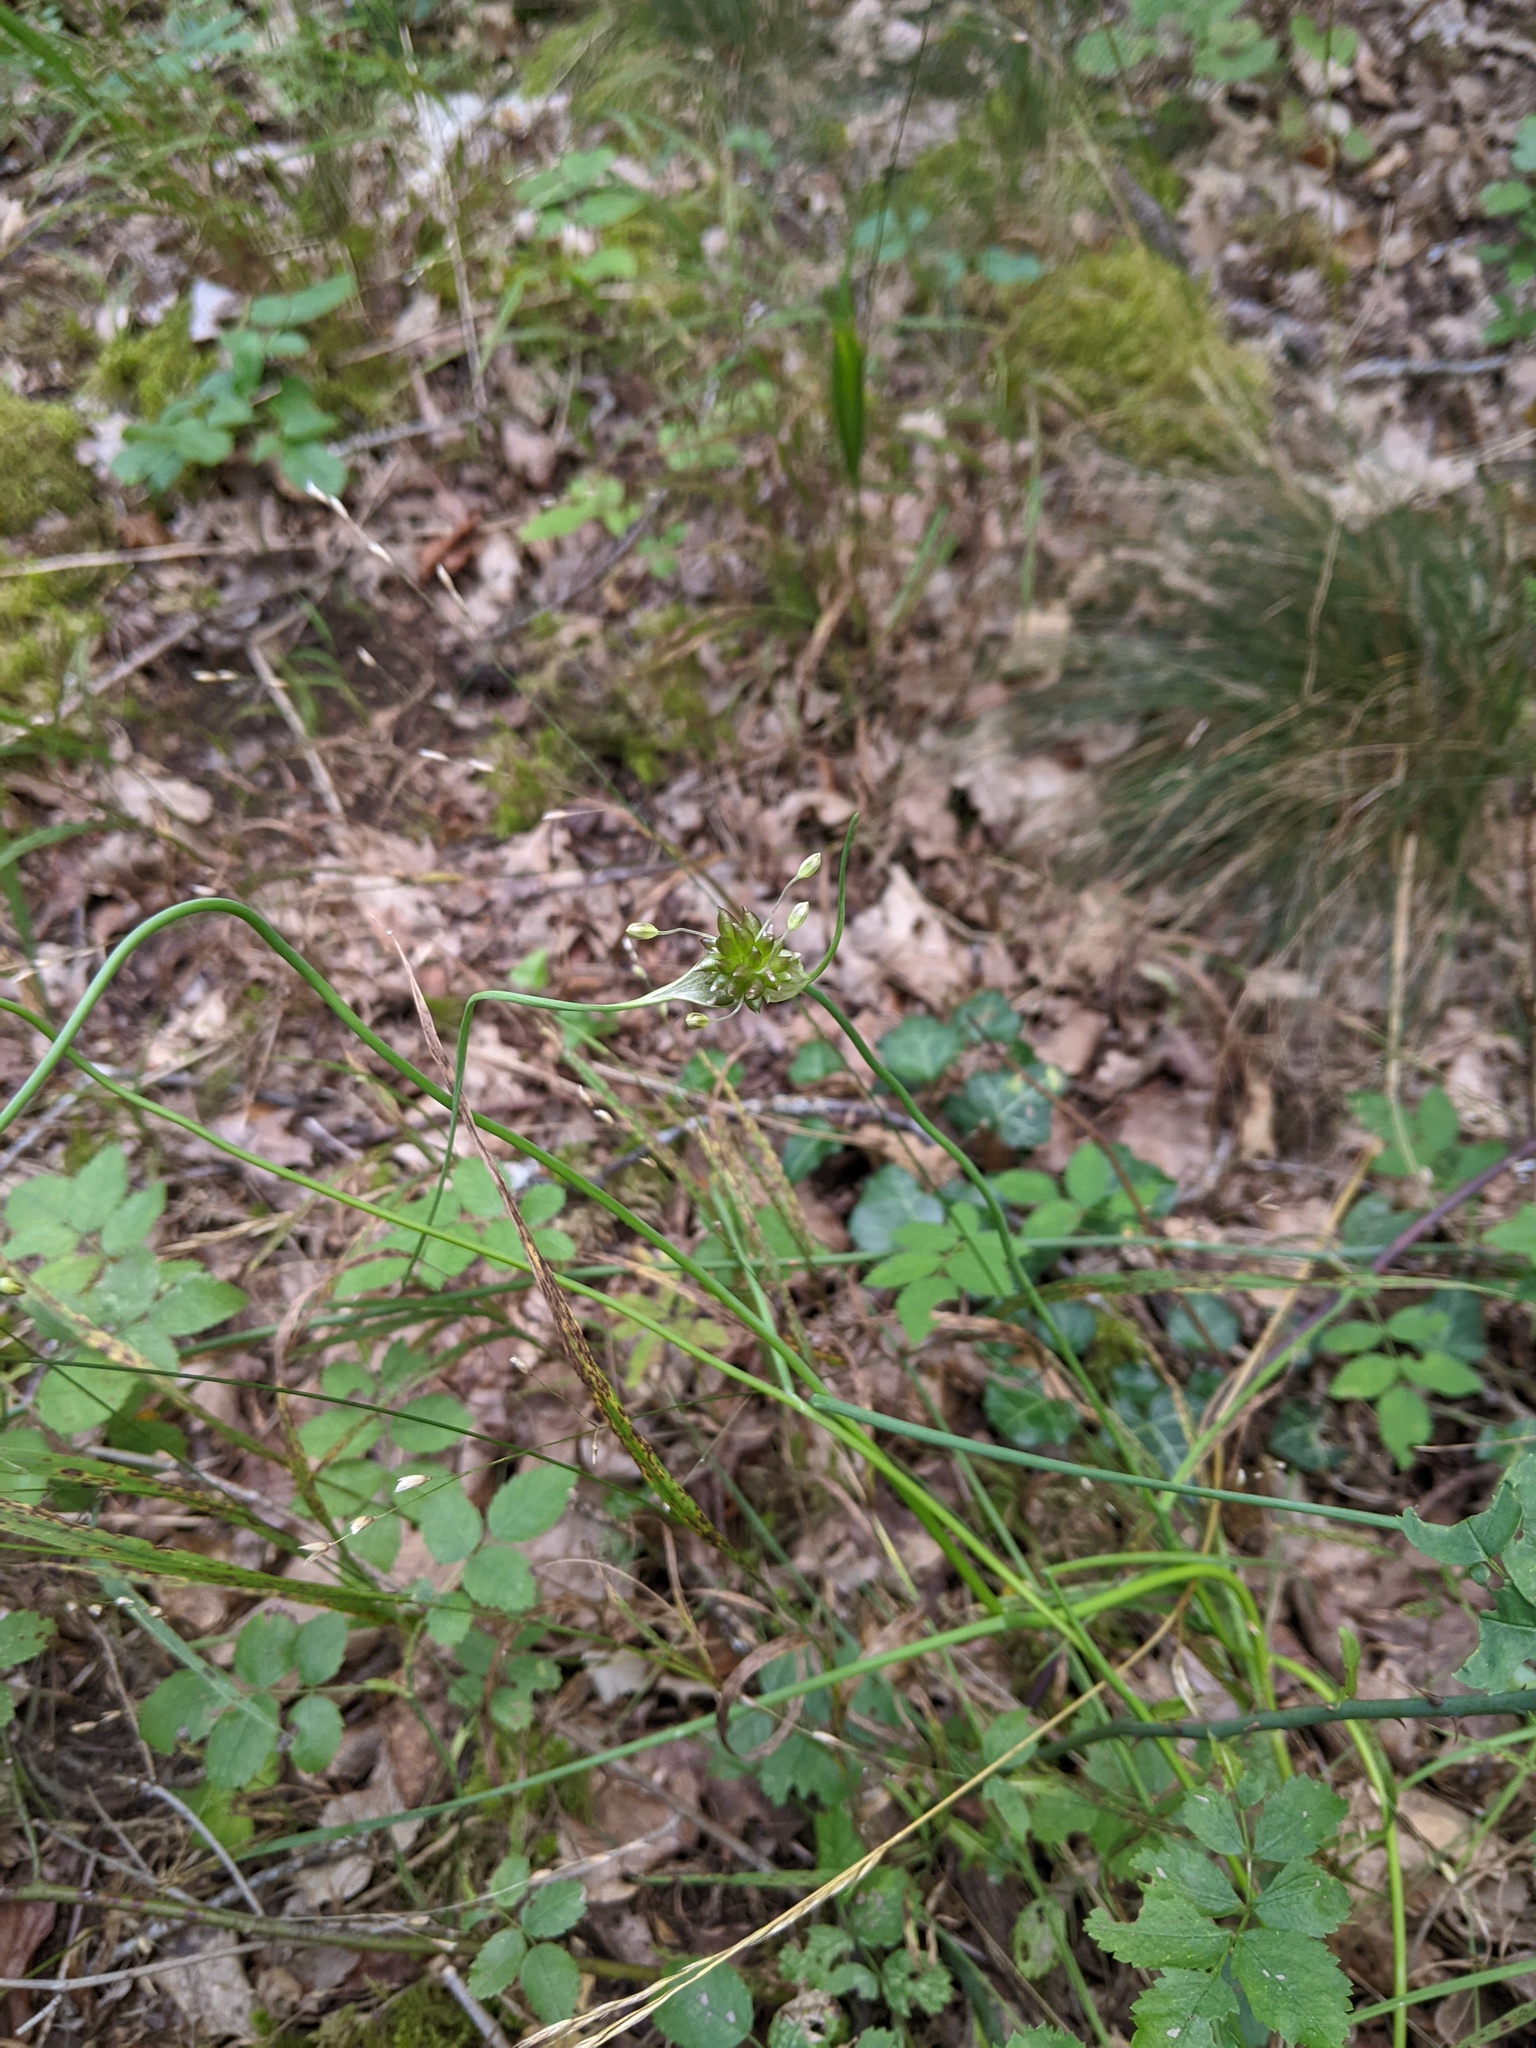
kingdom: Plantae
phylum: Tracheophyta
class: Liliopsida
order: Asparagales
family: Amaryllidaceae
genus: Allium
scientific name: Allium oleraceum
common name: Field garlic
